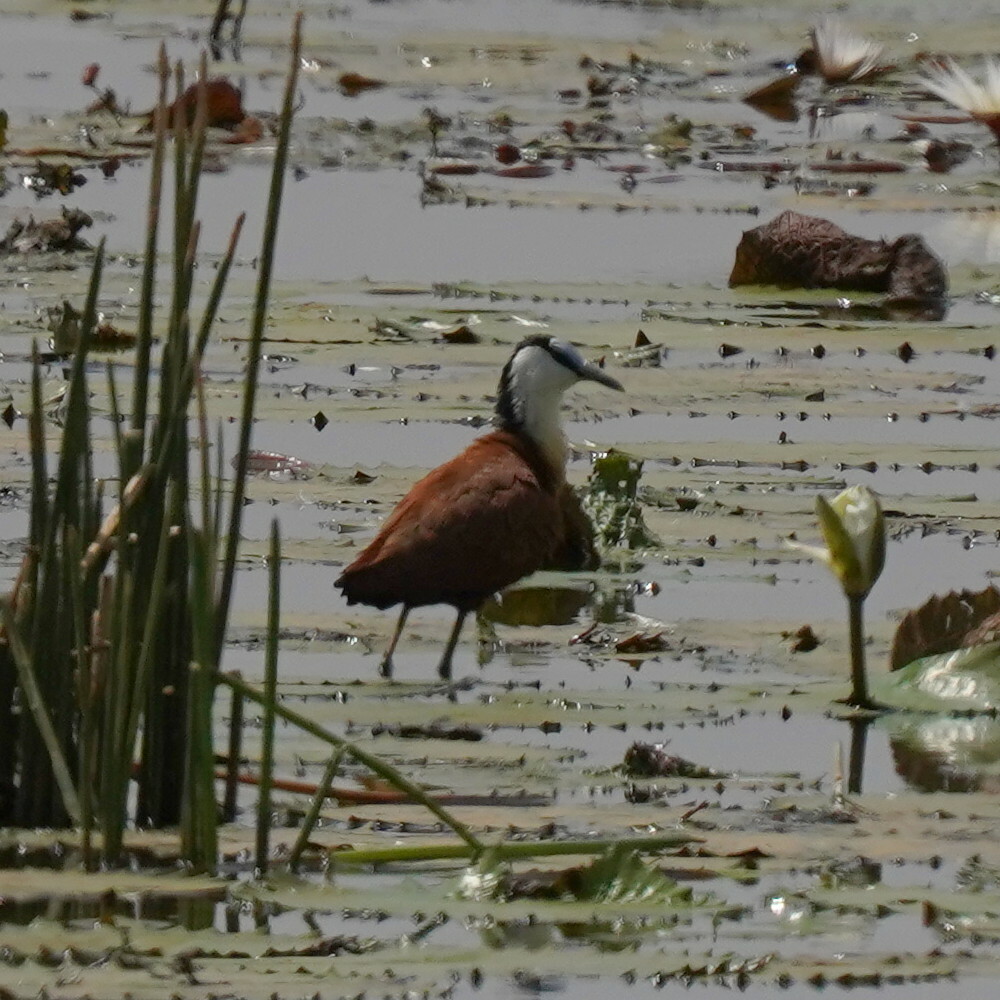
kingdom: Animalia
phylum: Chordata
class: Aves
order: Charadriiformes
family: Jacanidae
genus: Actophilornis
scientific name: Actophilornis africanus
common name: African jacana
